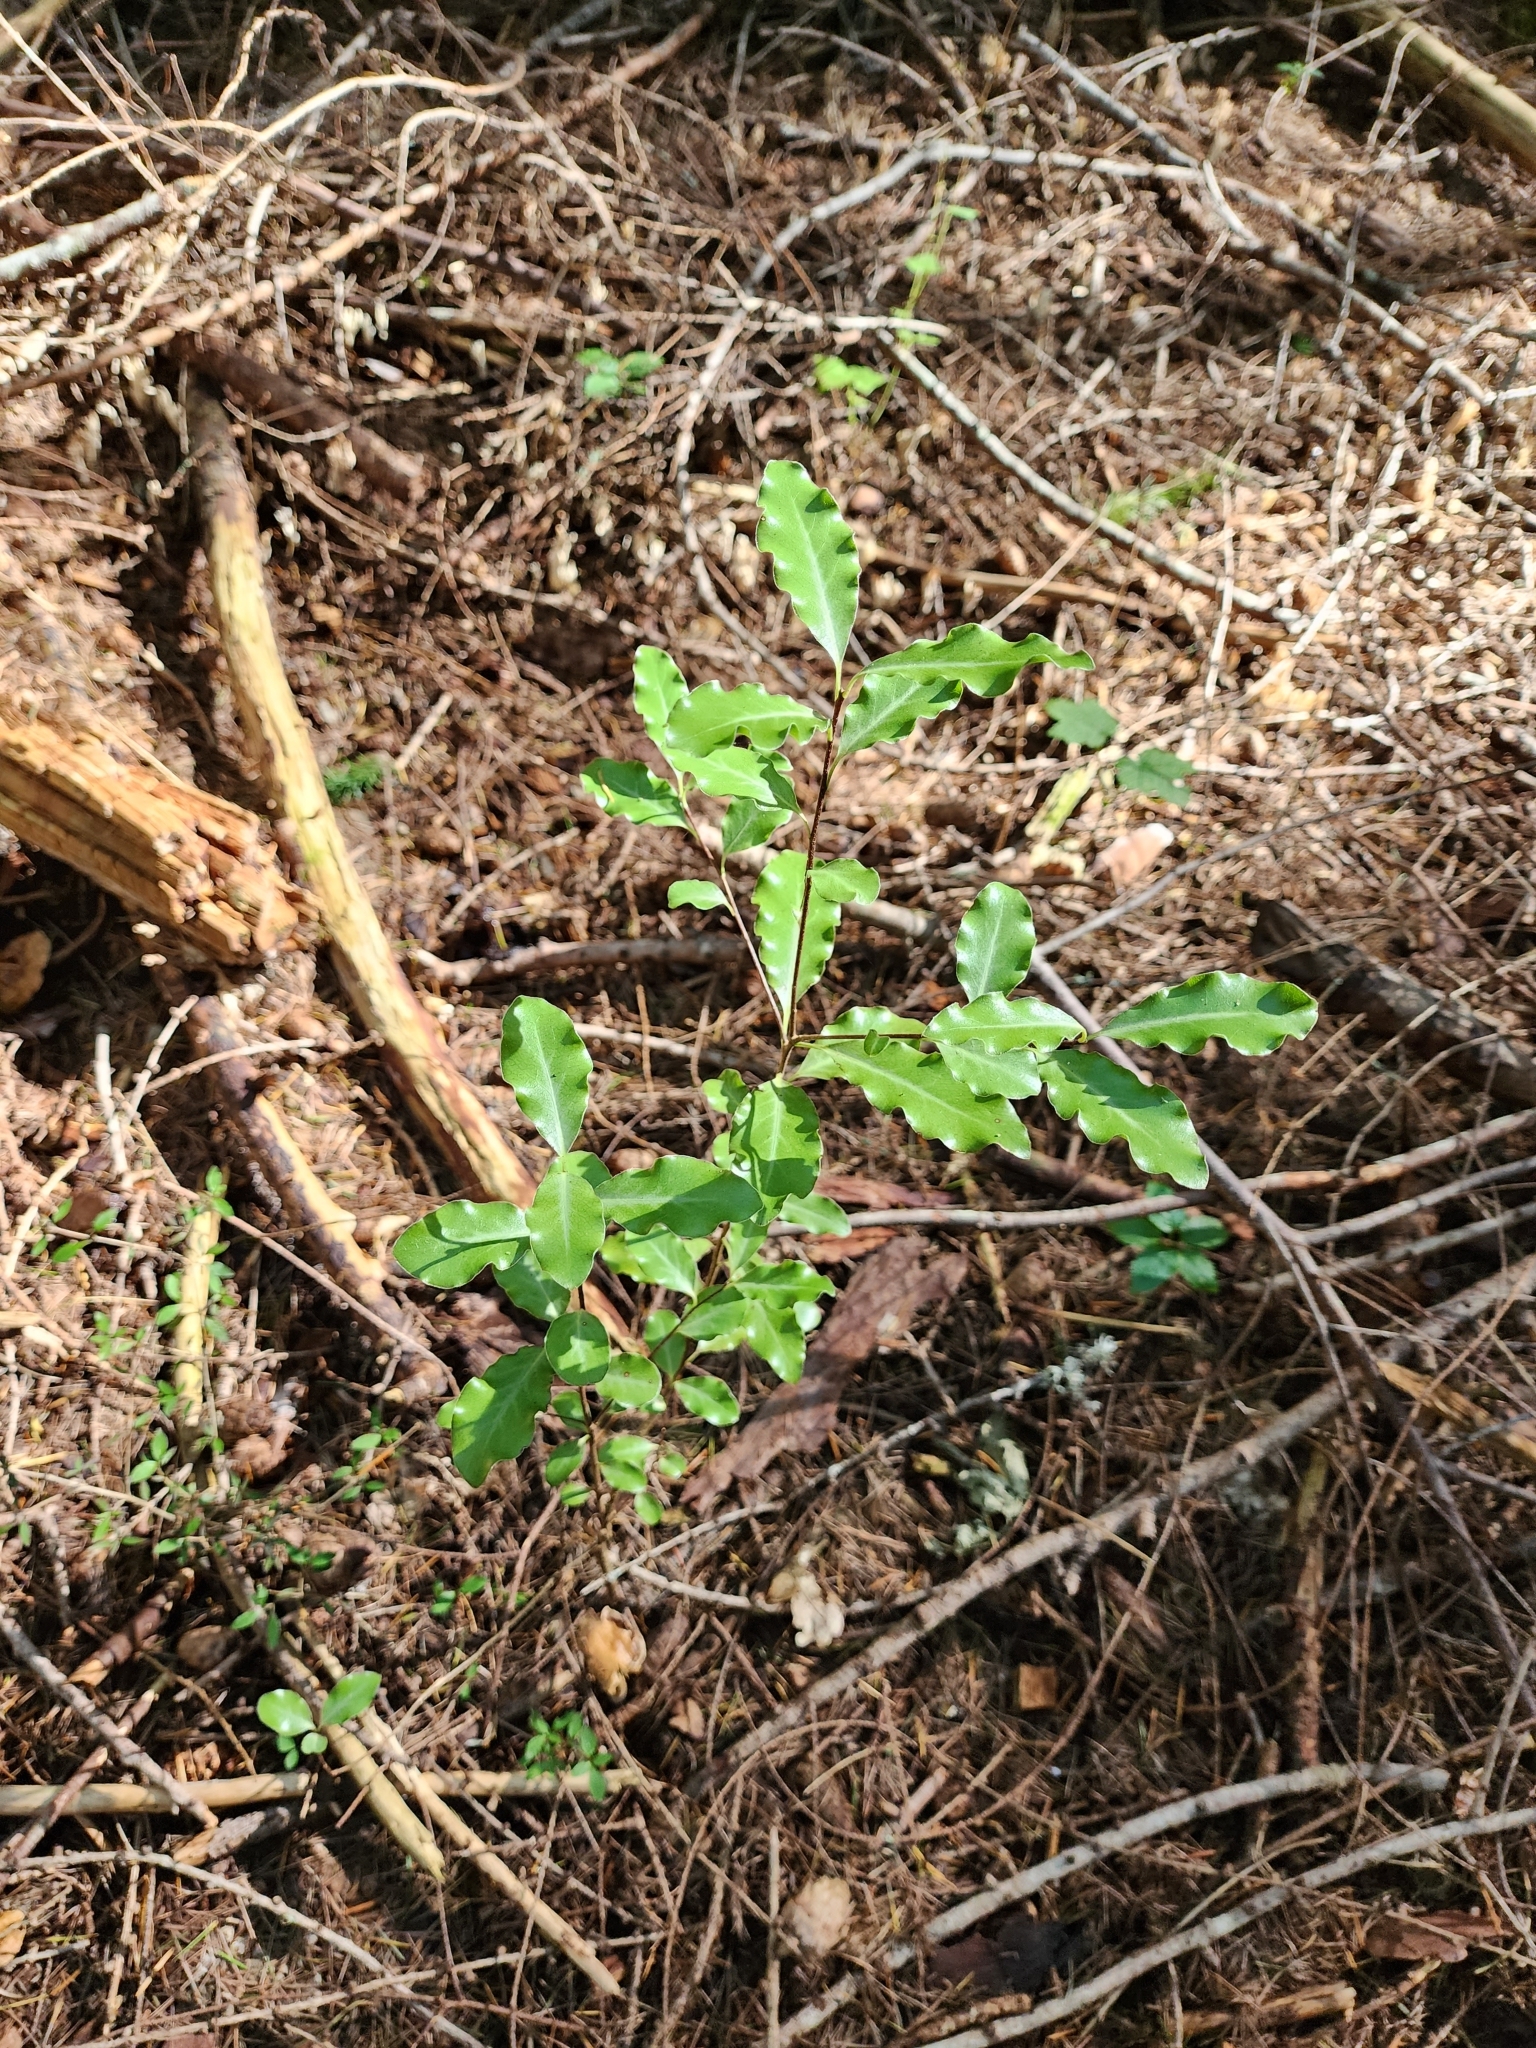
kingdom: Plantae
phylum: Tracheophyta
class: Magnoliopsida
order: Apiales
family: Pittosporaceae
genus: Pittosporum
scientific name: Pittosporum tenuifolium
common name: Kohuhu
